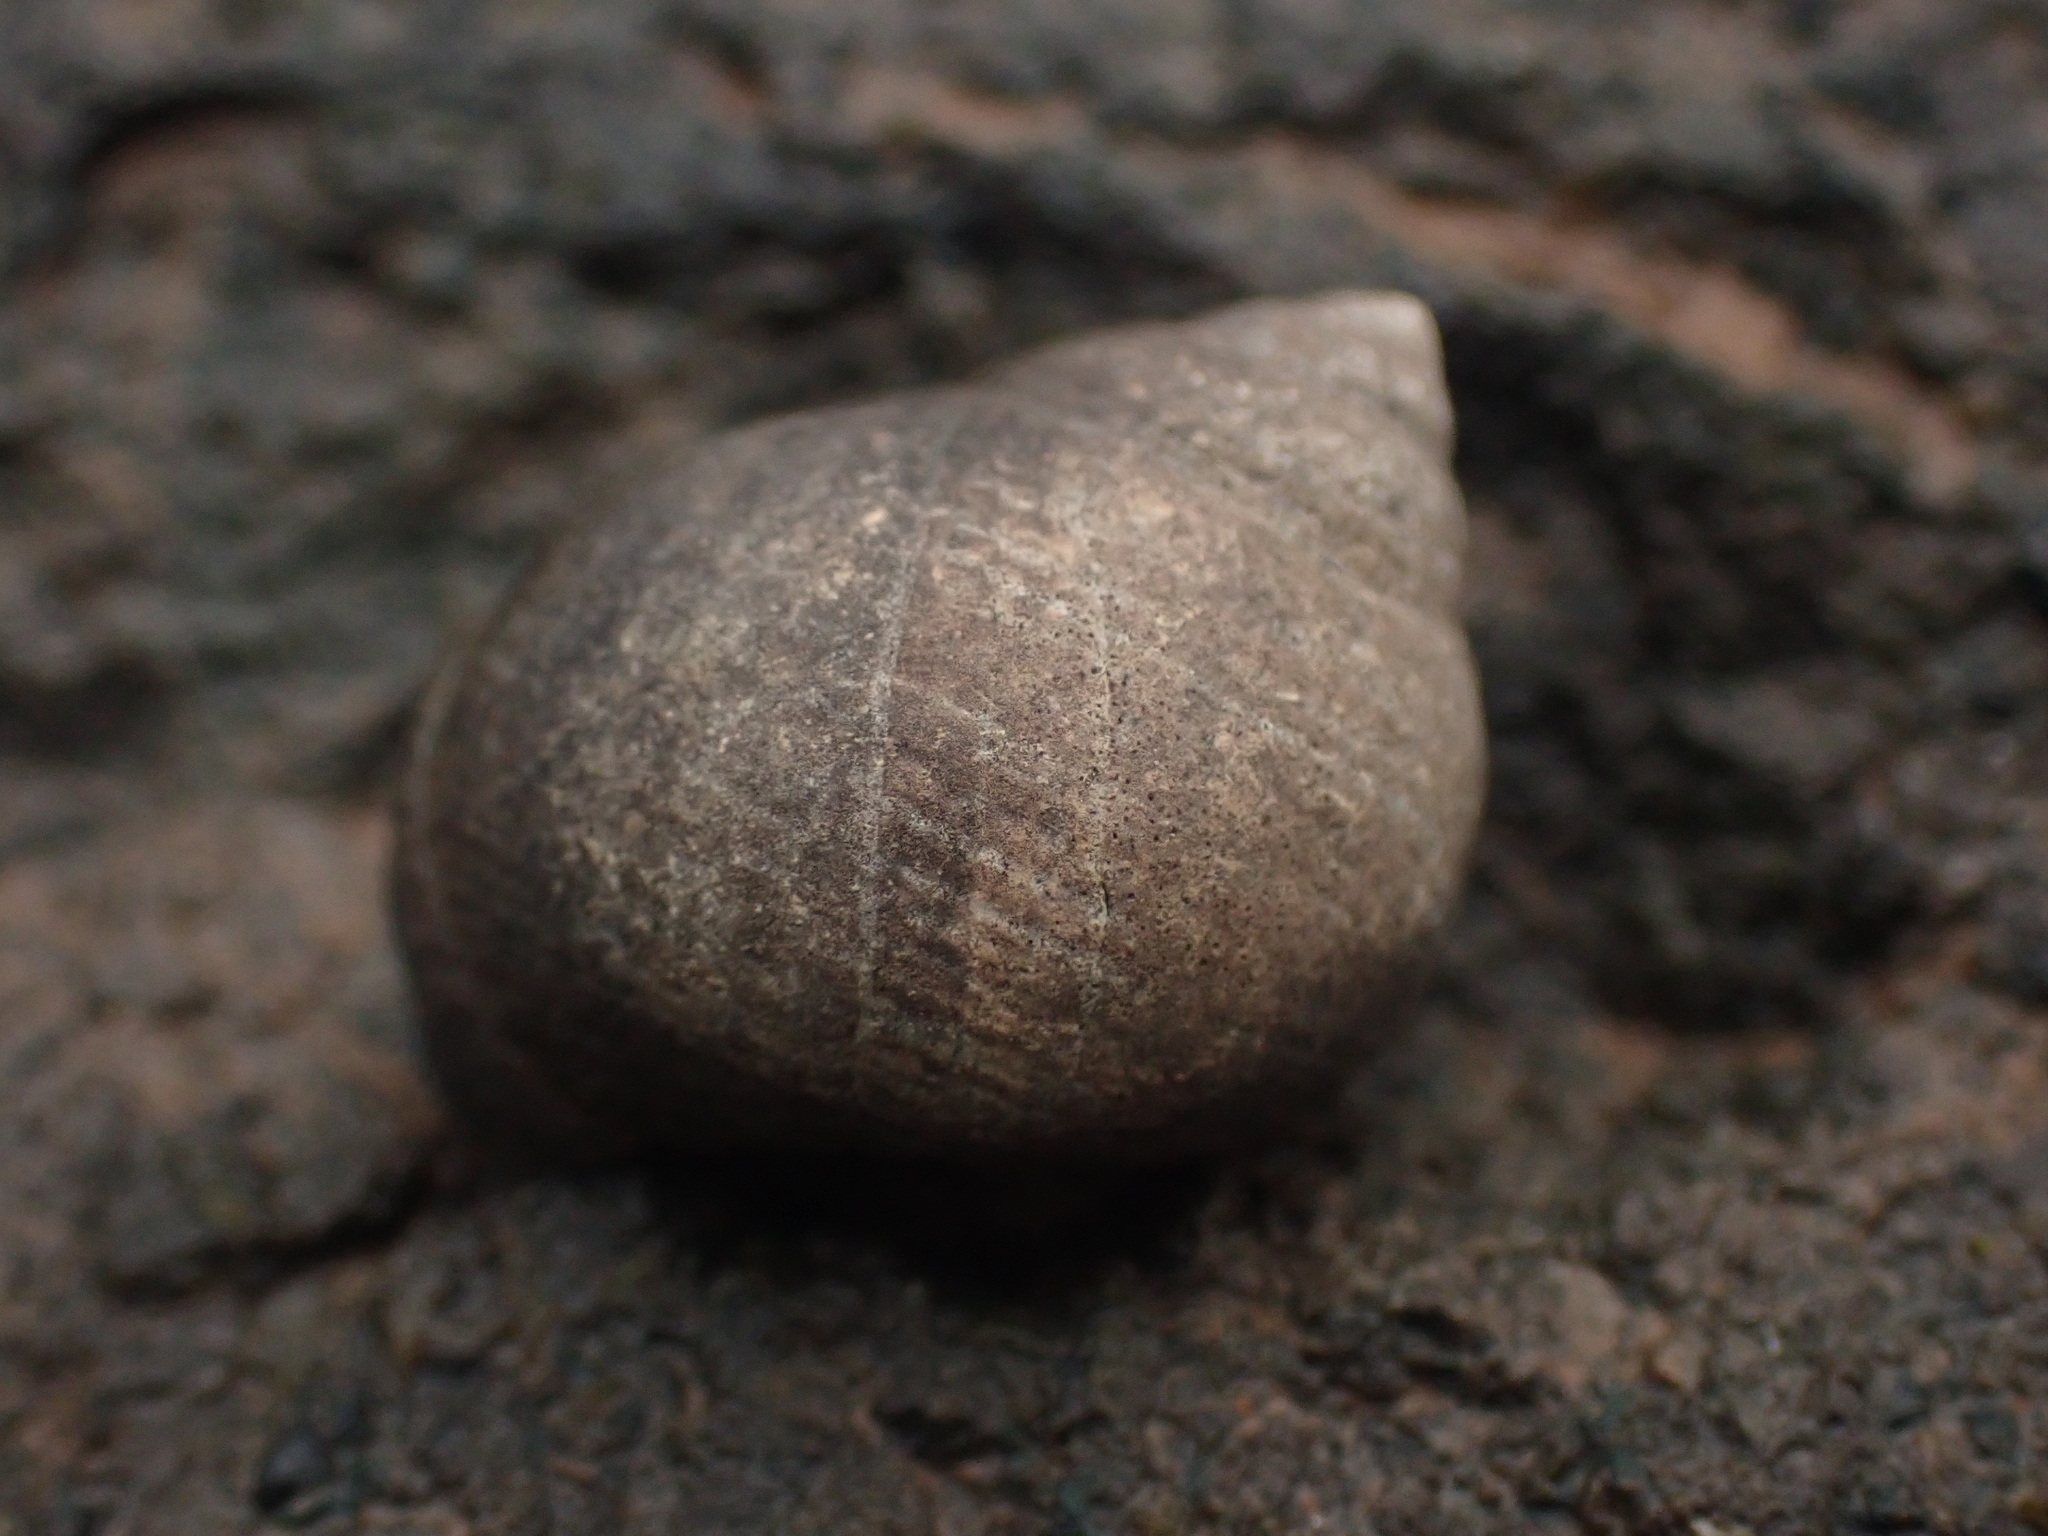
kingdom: Animalia
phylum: Mollusca
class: Gastropoda
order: Littorinimorpha
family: Littorinidae
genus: Littorina
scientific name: Littorina littorea
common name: Common periwinkle
